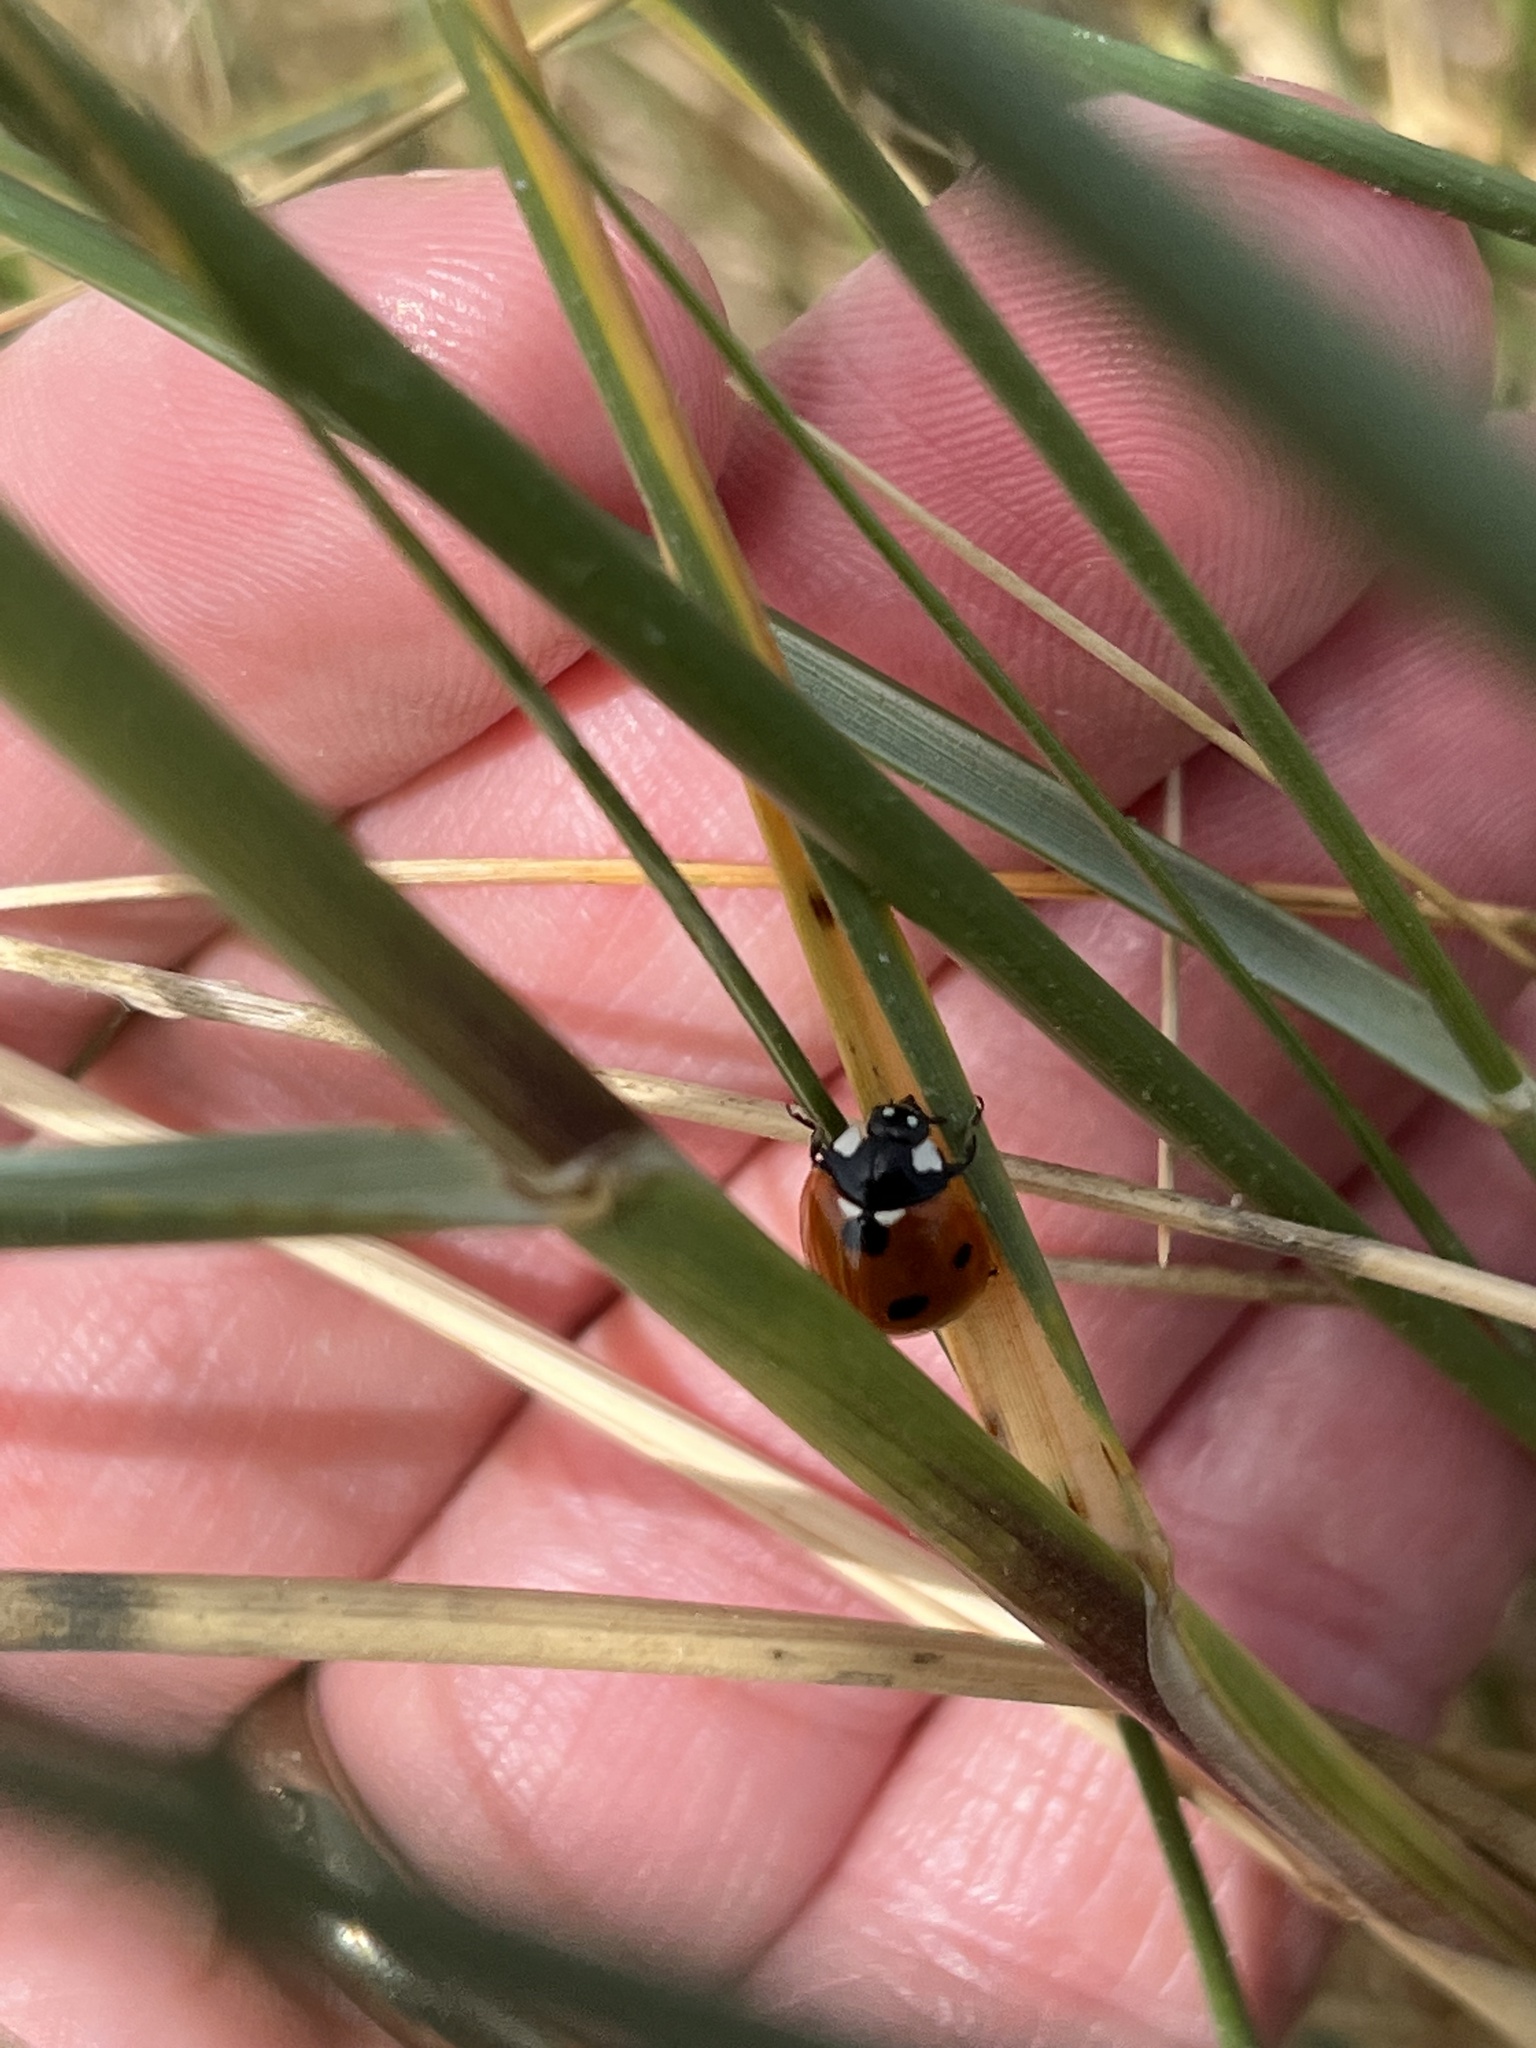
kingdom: Animalia
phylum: Arthropoda
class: Insecta
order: Coleoptera
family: Coccinellidae
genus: Coccinella
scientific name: Coccinella septempunctata
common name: Sevenspotted lady beetle
